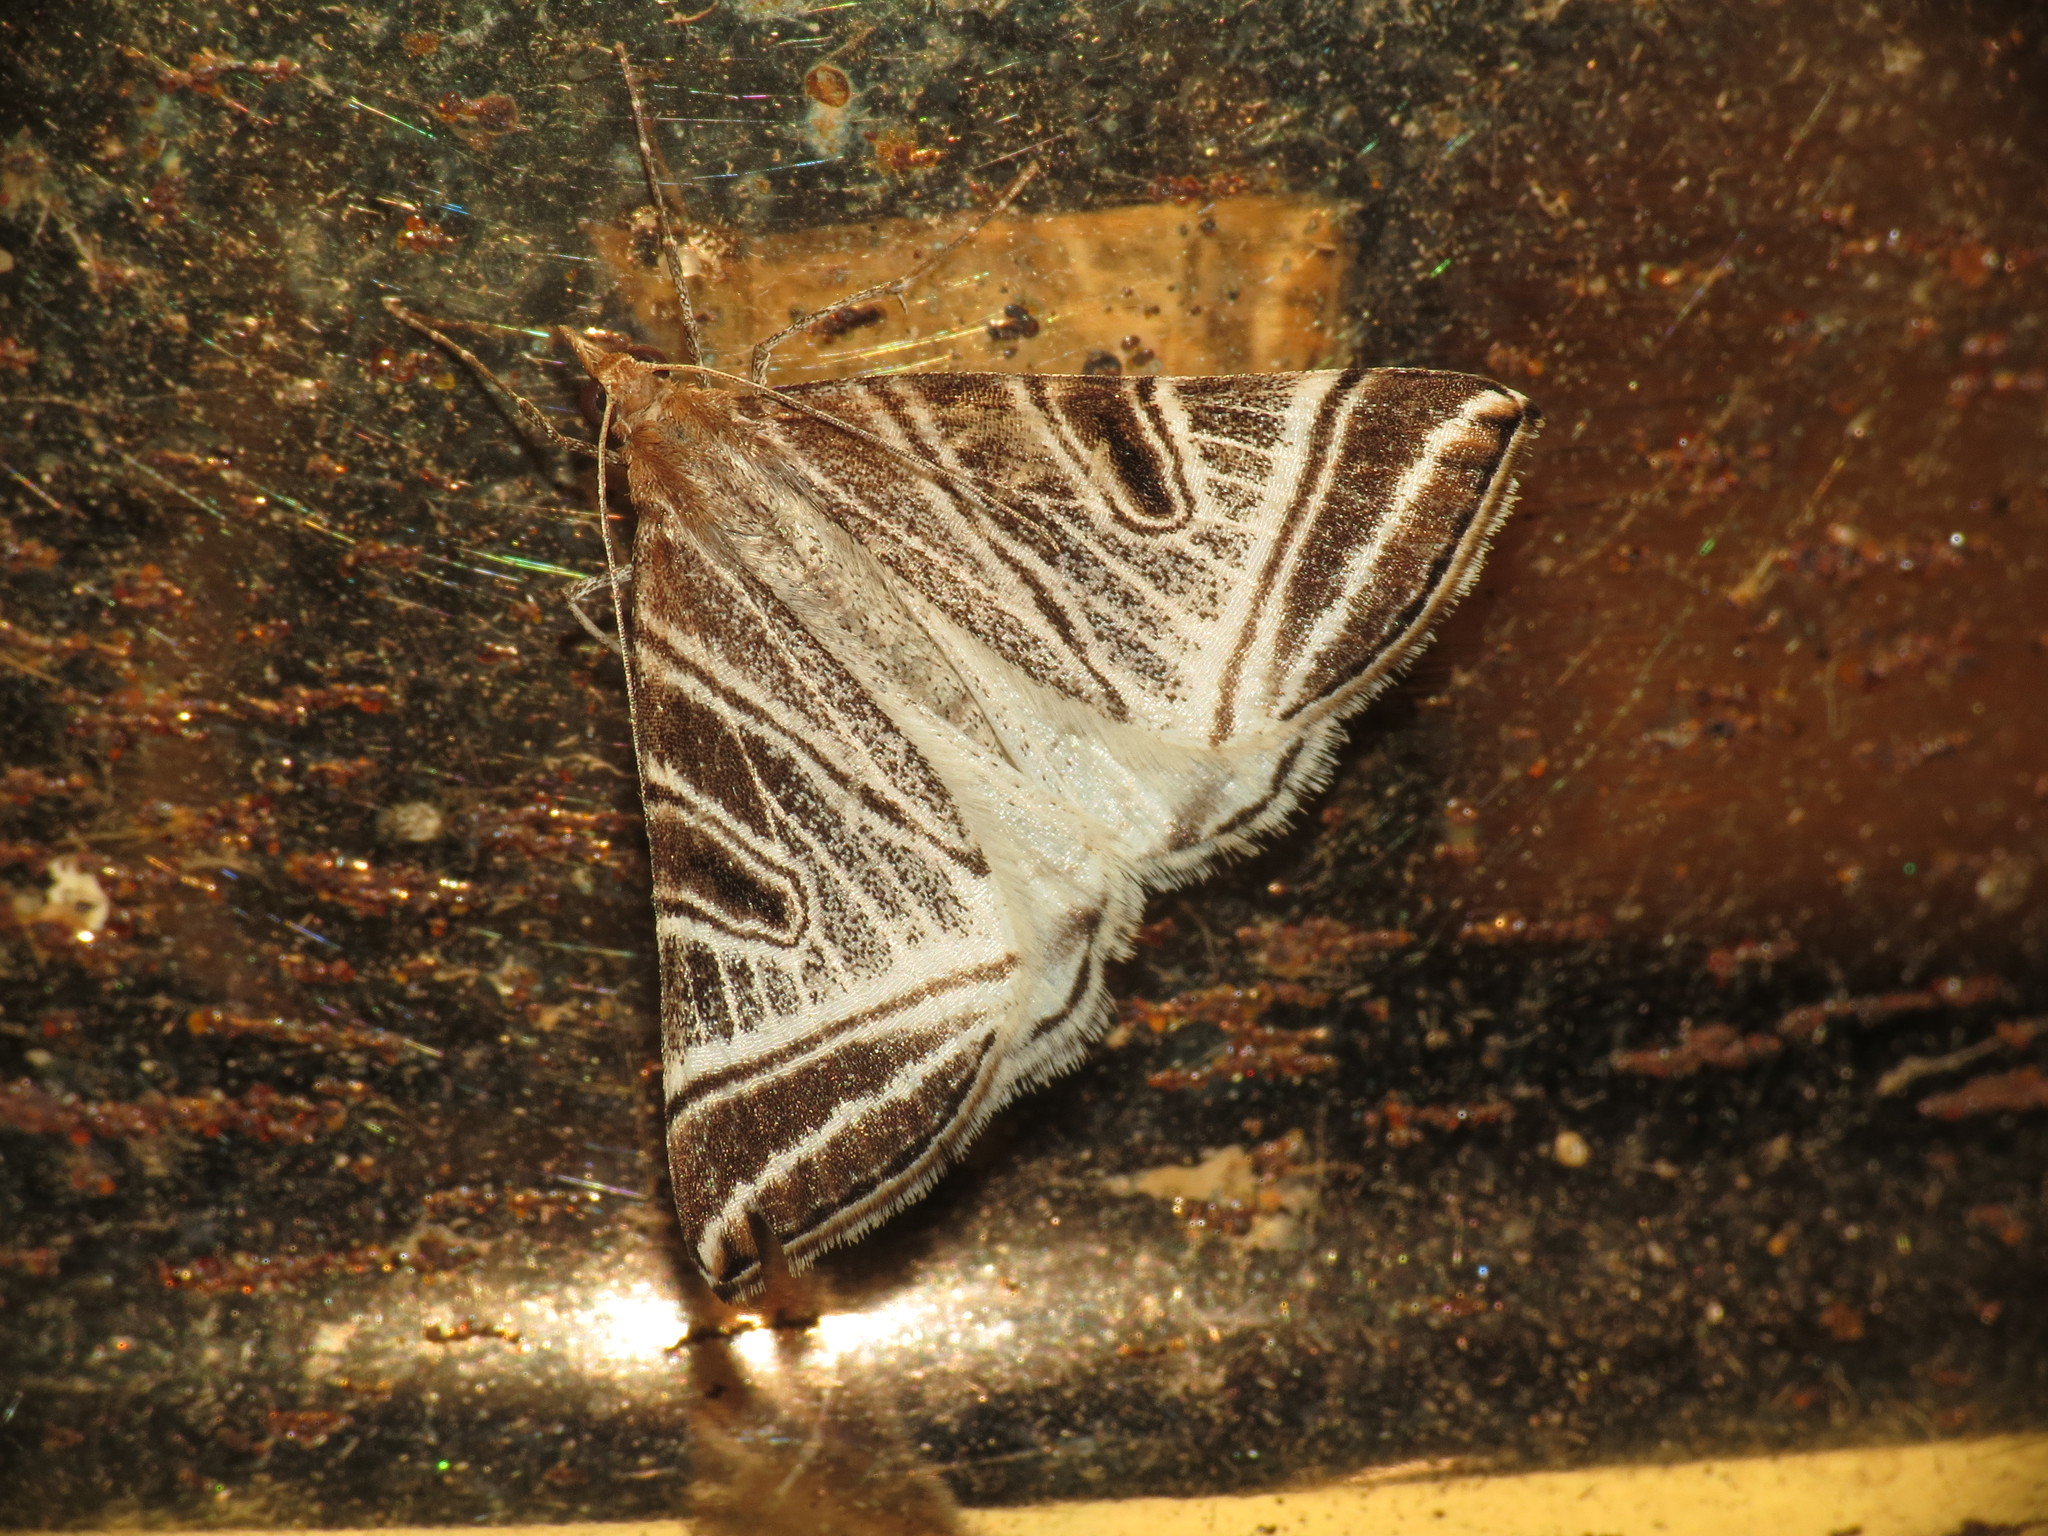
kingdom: Animalia
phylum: Arthropoda
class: Insecta
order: Lepidoptera
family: Geometridae
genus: Phrataria
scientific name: Phrataria replicataria
